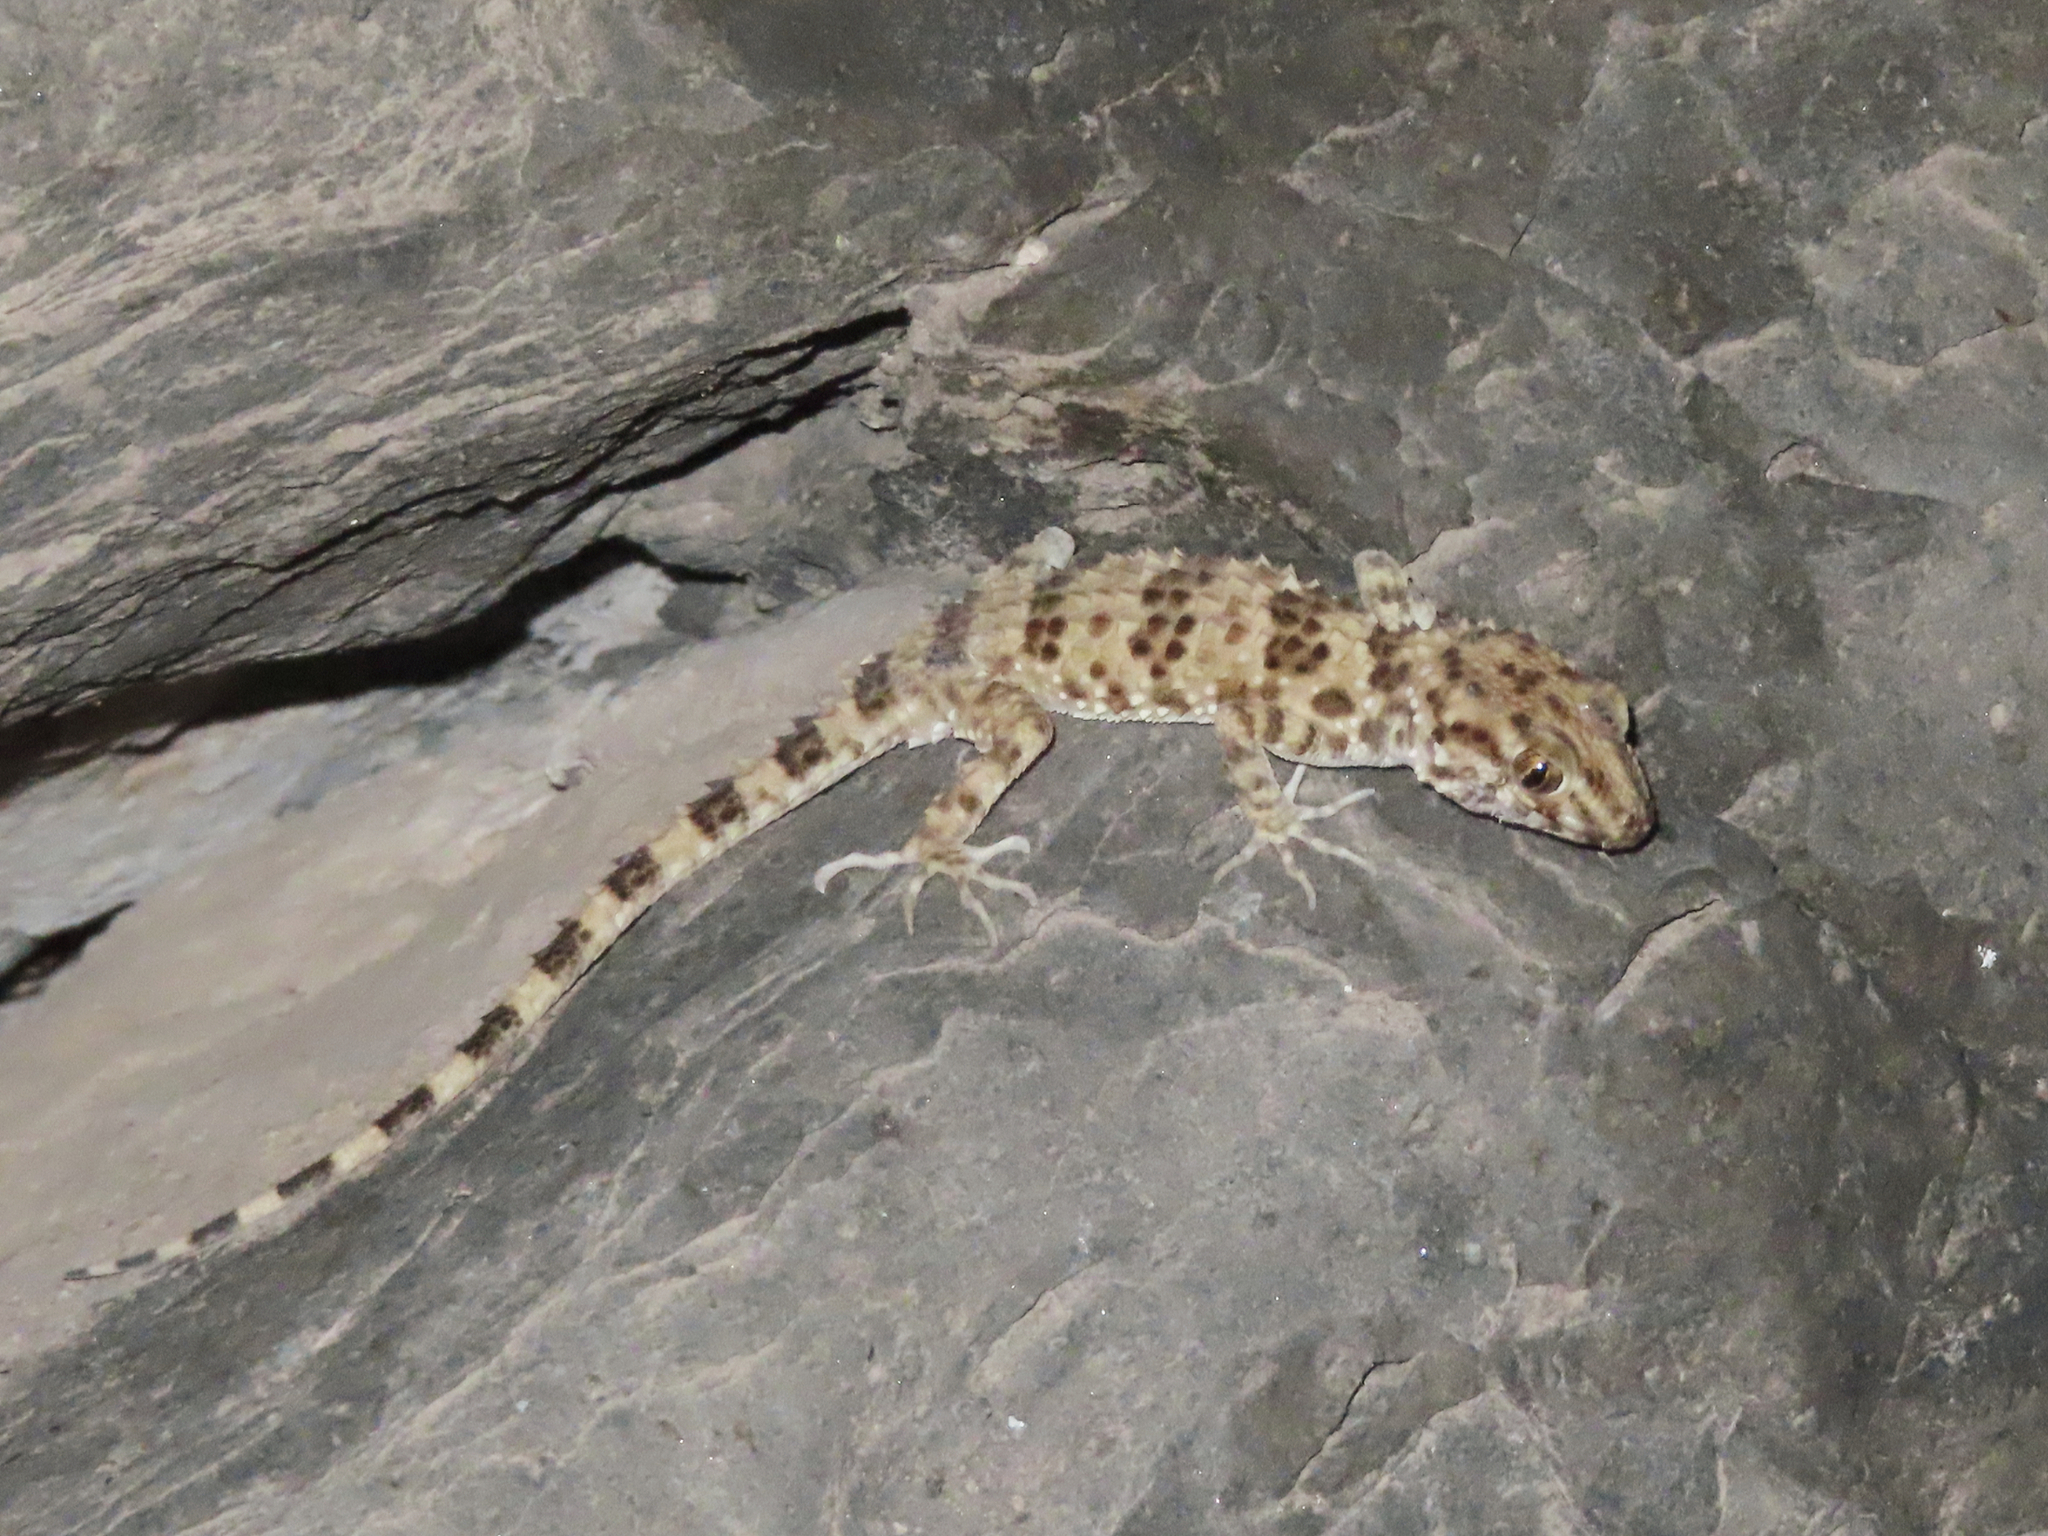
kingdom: Animalia
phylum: Chordata
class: Squamata
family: Gekkonidae
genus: Tenuidactylus
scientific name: Tenuidactylus caspius
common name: Caspian bent-toed gecko
